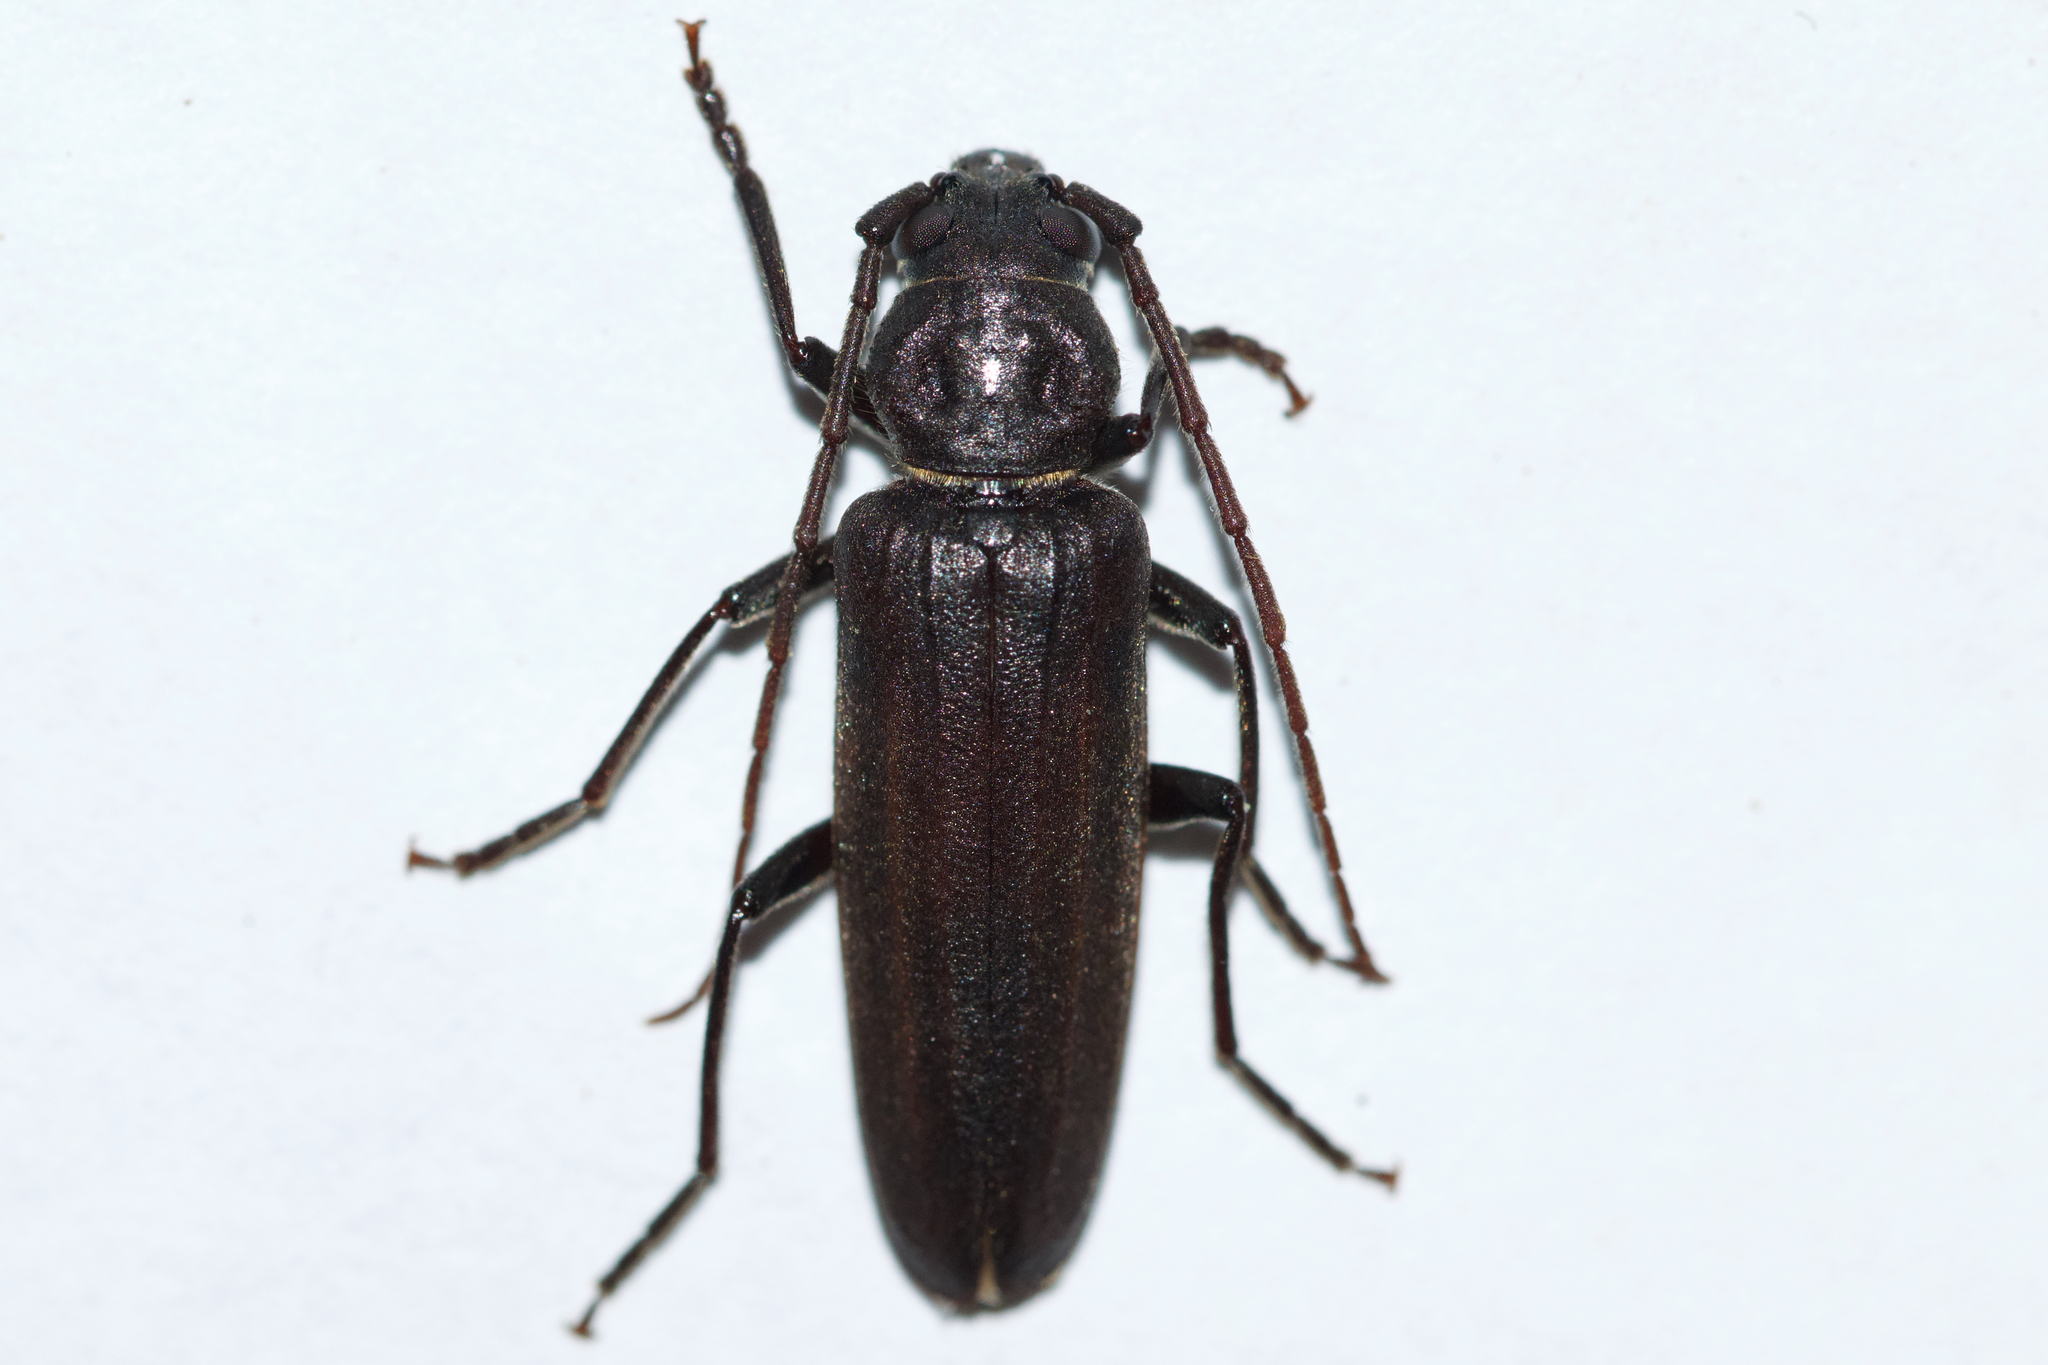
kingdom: Animalia
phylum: Arthropoda
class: Insecta
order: Coleoptera
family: Cerambycidae
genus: Arhopalus
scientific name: Arhopalus foveicollis
